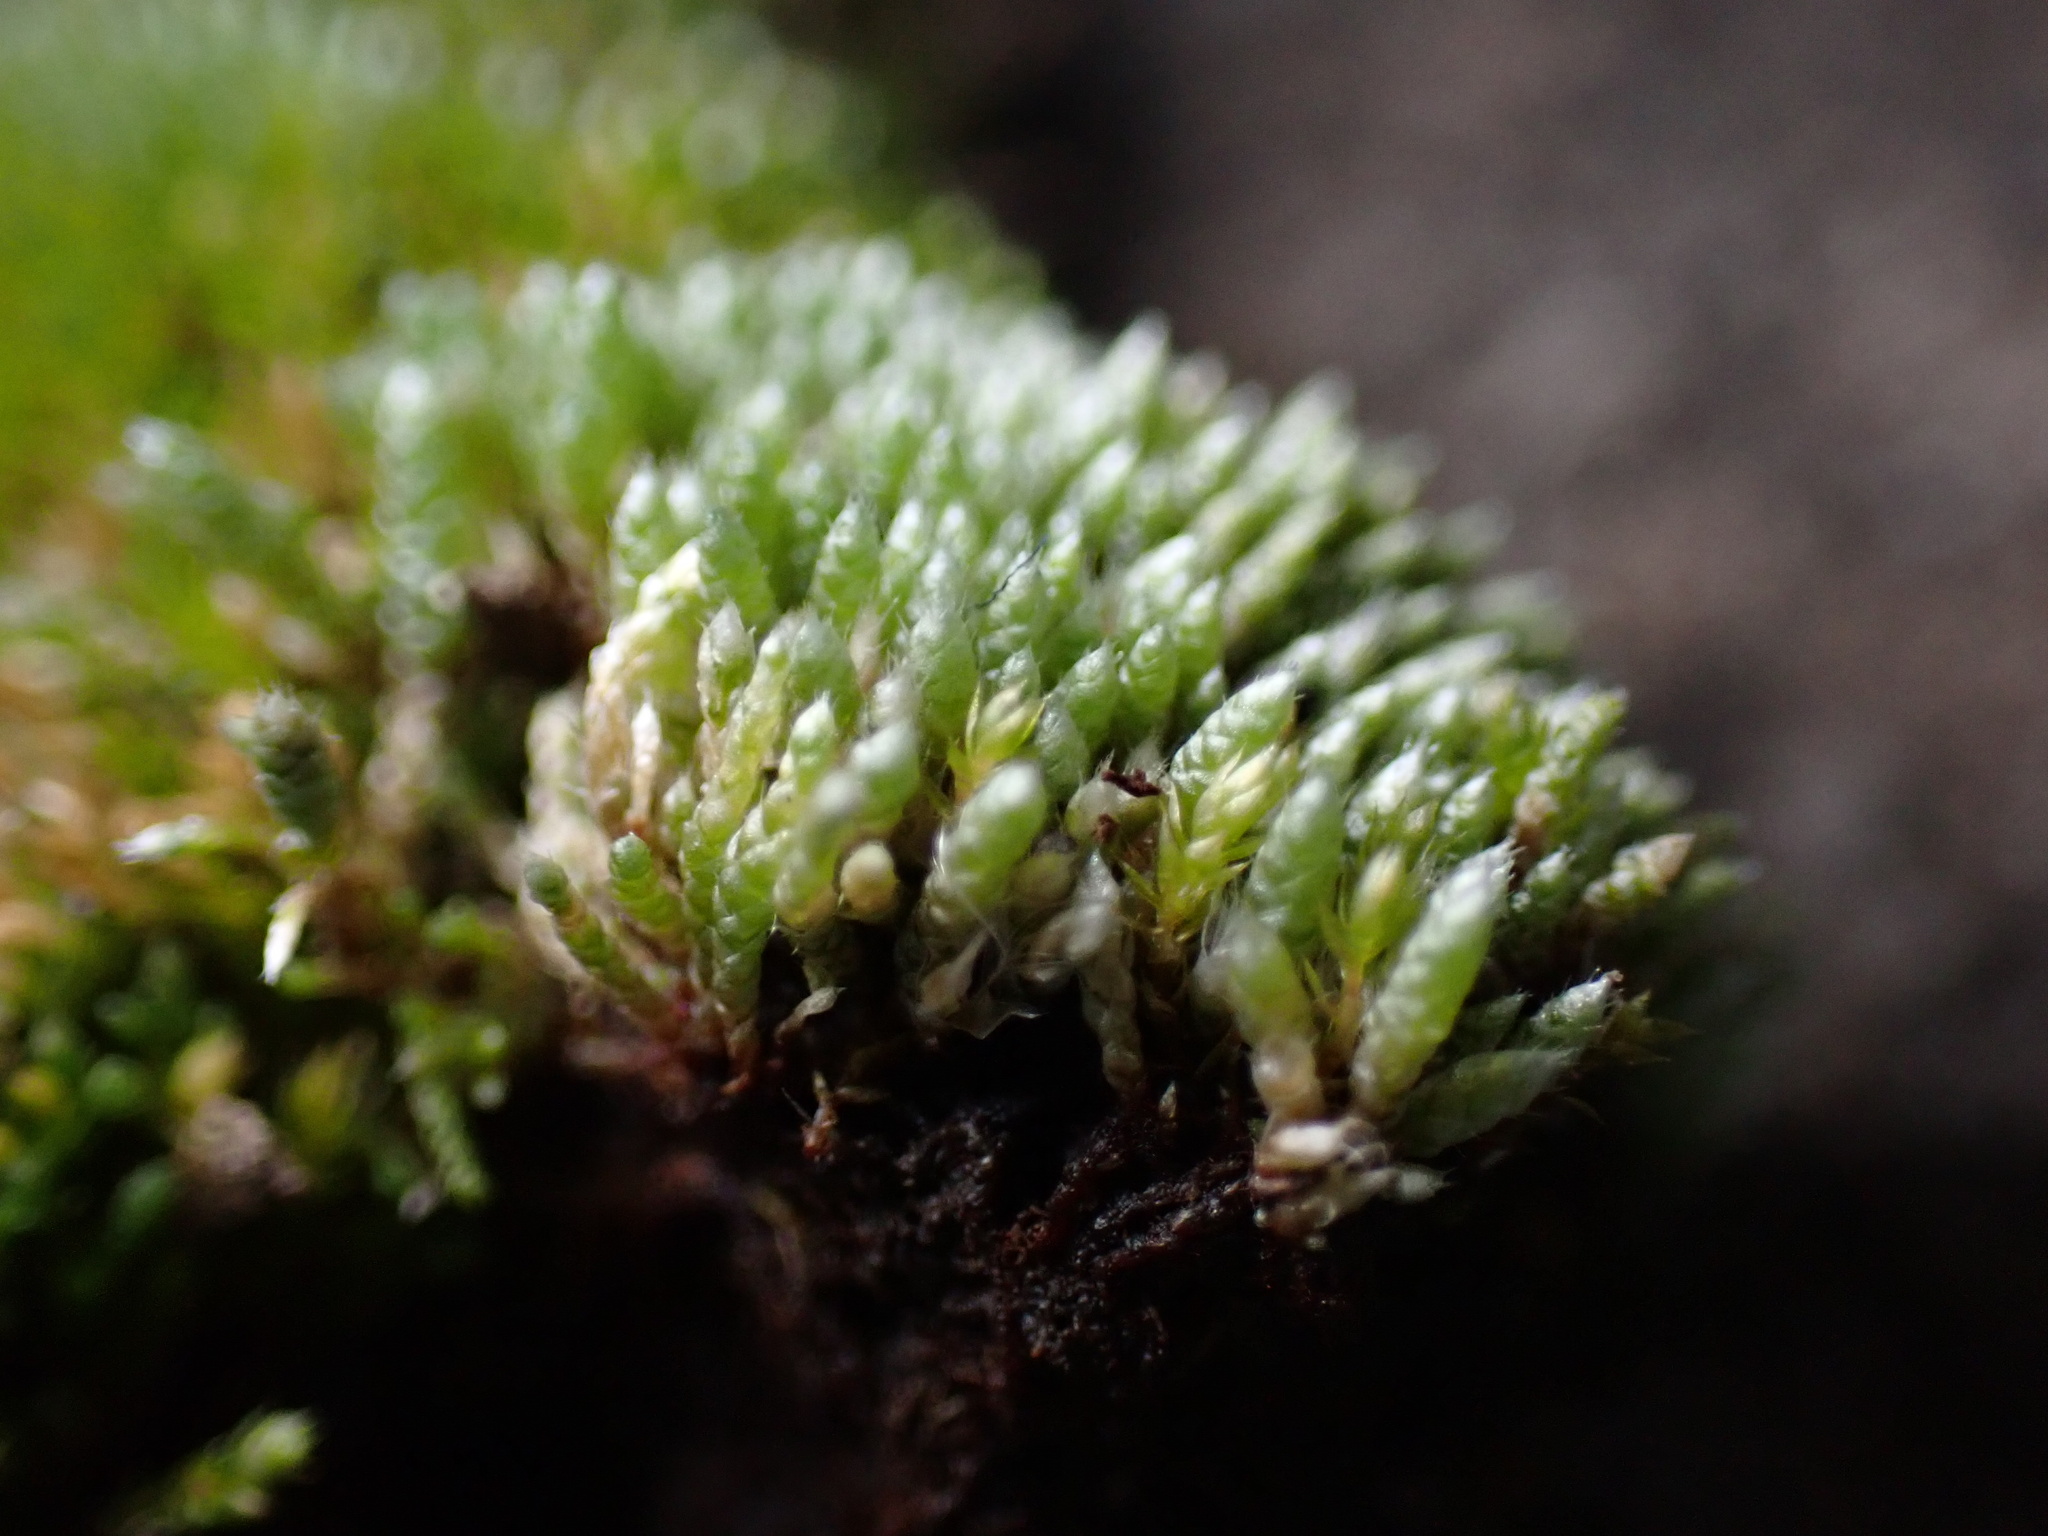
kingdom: Plantae
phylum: Bryophyta
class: Bryopsida
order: Bryales
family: Bryaceae
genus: Bryum
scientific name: Bryum argenteum
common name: Silver-moss
